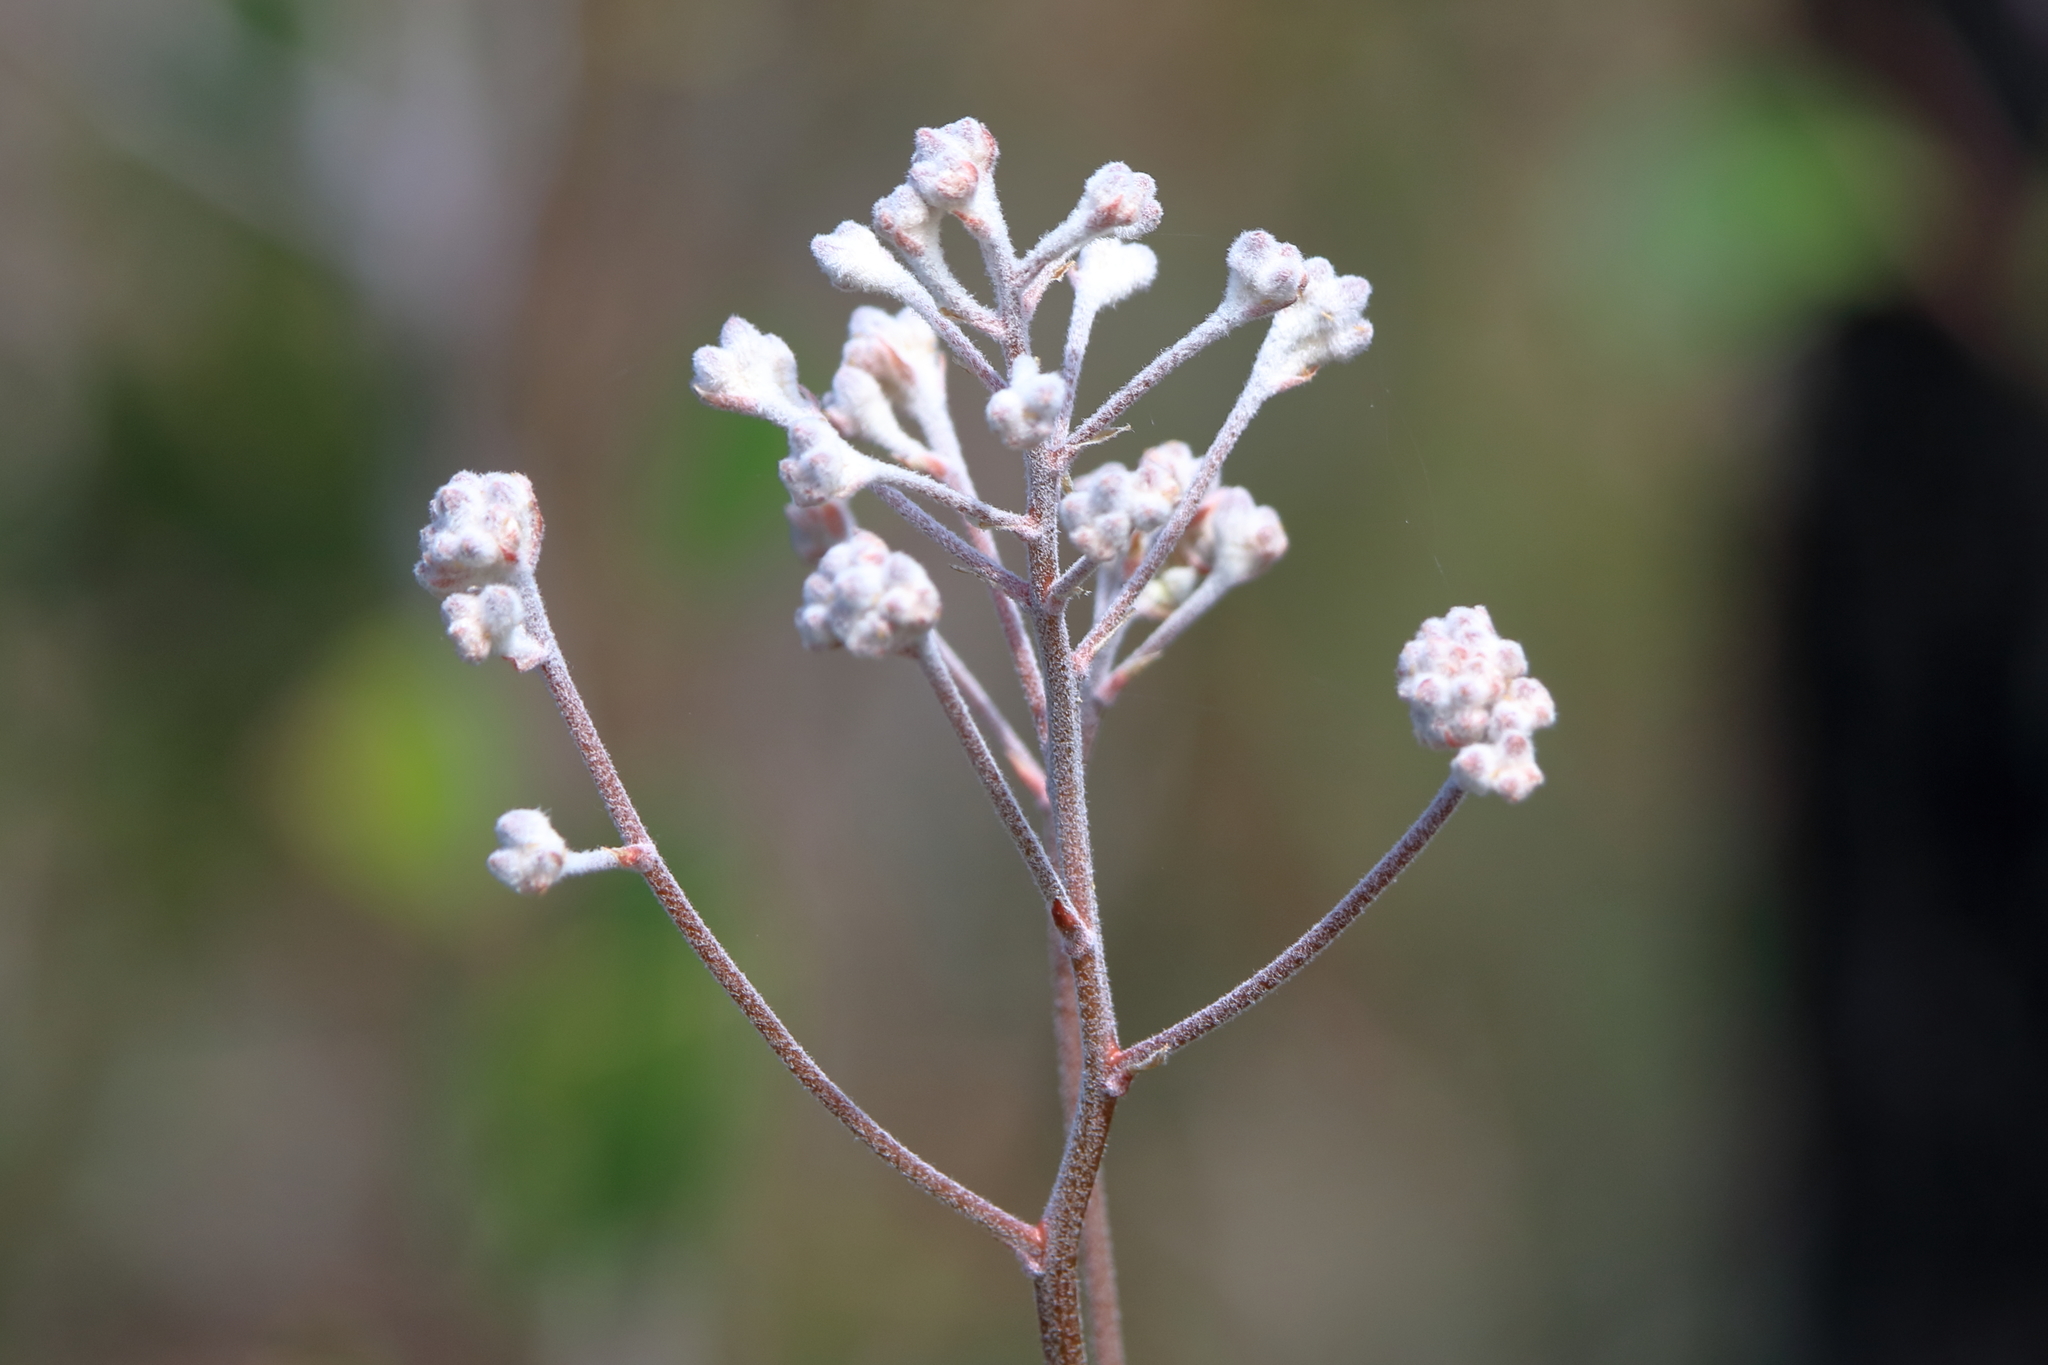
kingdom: Plantae
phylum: Tracheophyta
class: Liliopsida
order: Dioscoreales
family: Nartheciaceae
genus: Lophiola
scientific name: Lophiola aurea
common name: Golden-crest
